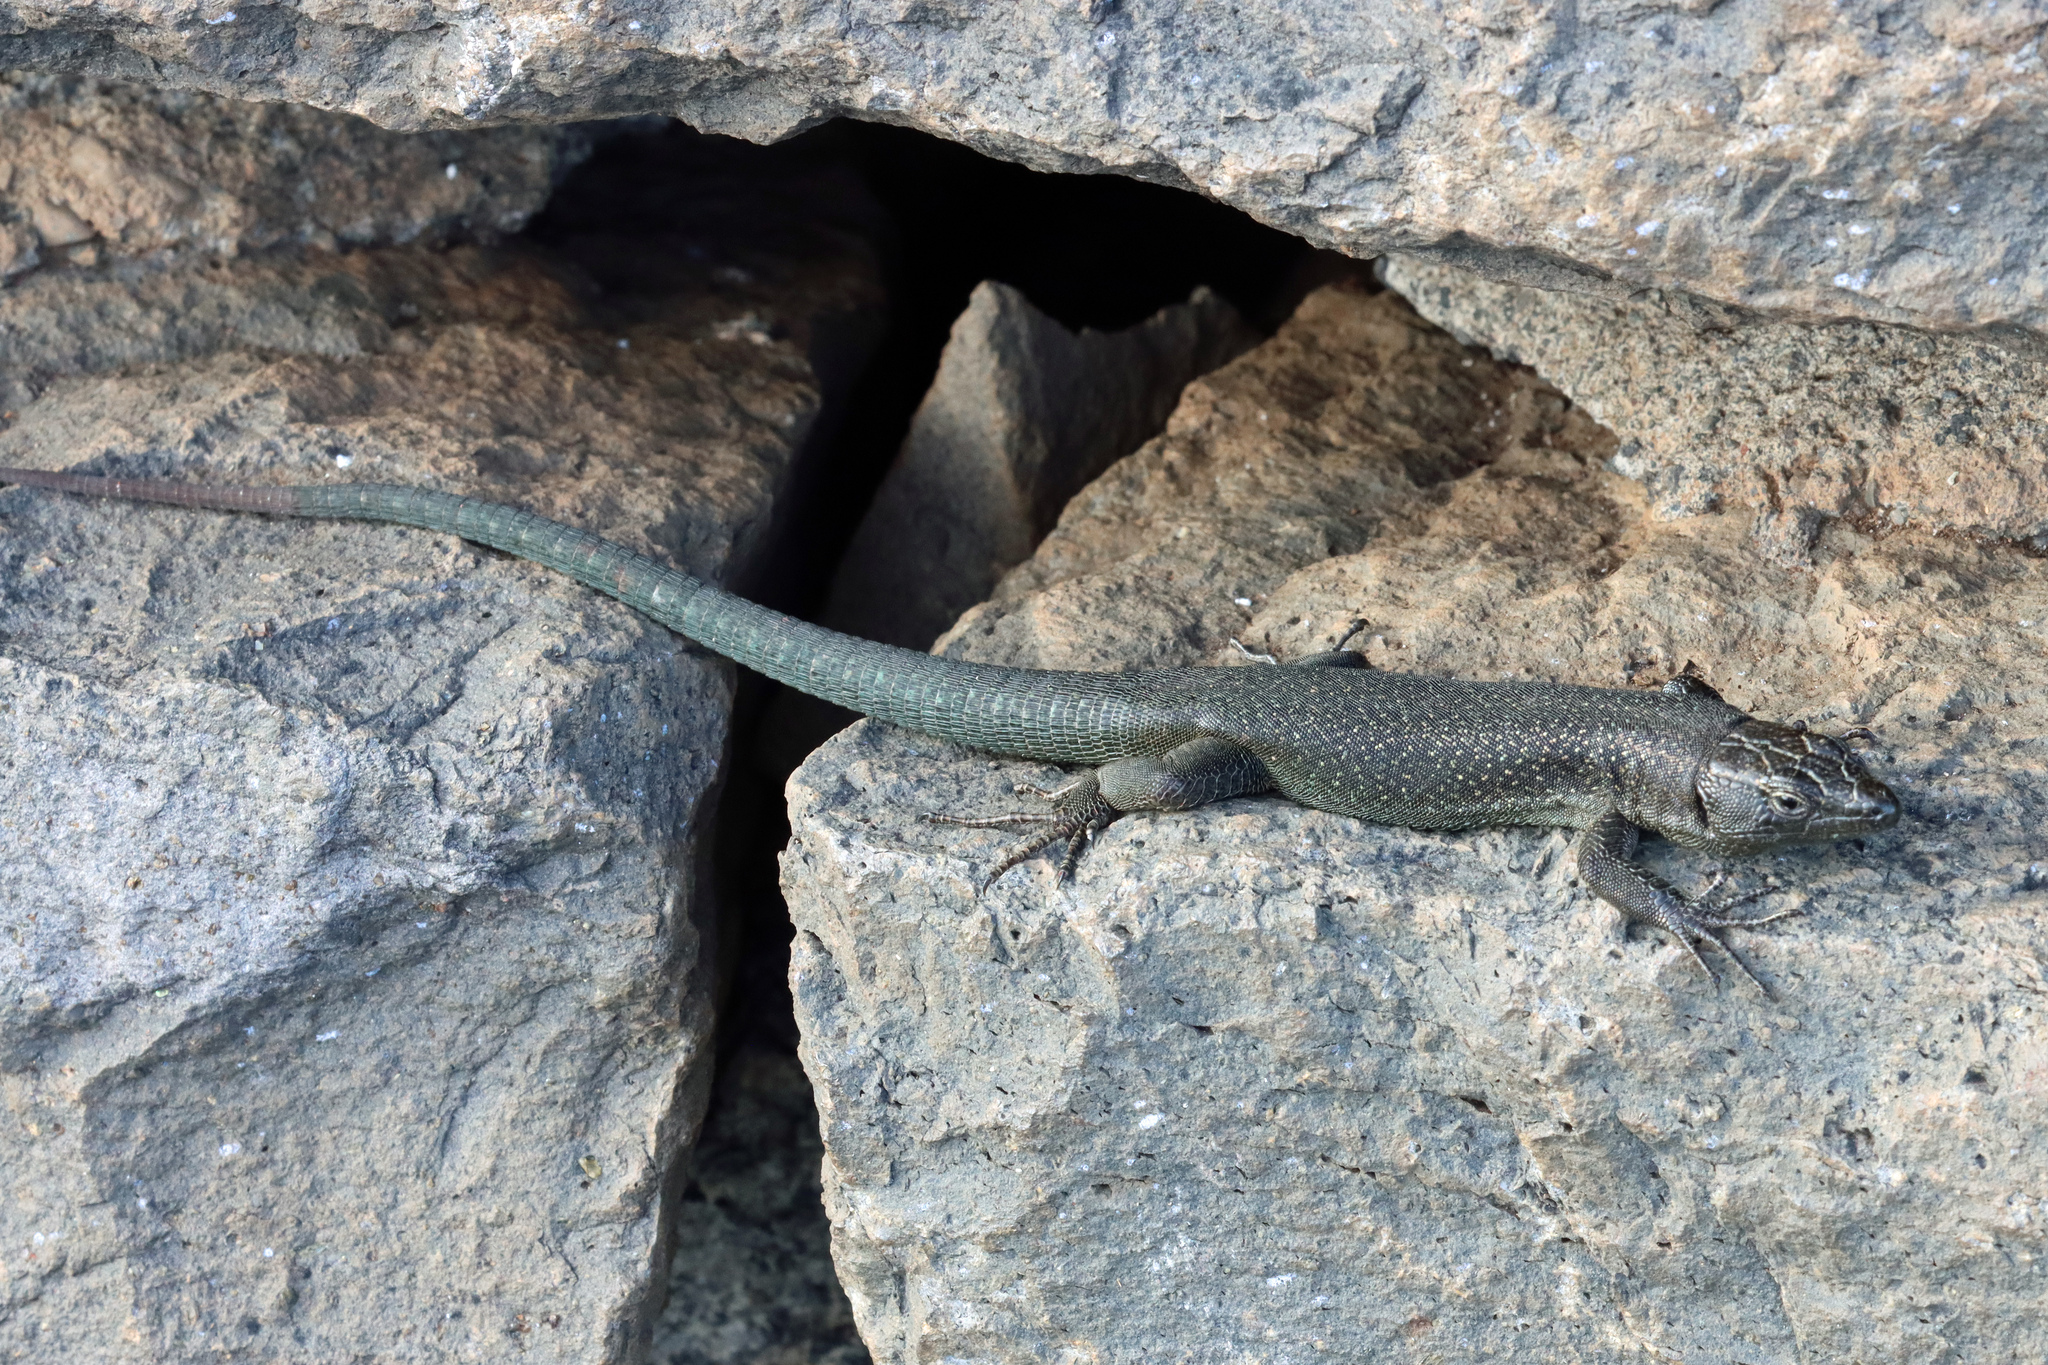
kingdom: Animalia
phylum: Chordata
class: Squamata
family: Lacertidae
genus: Teira
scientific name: Teira dugesii
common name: Madeira lizard
